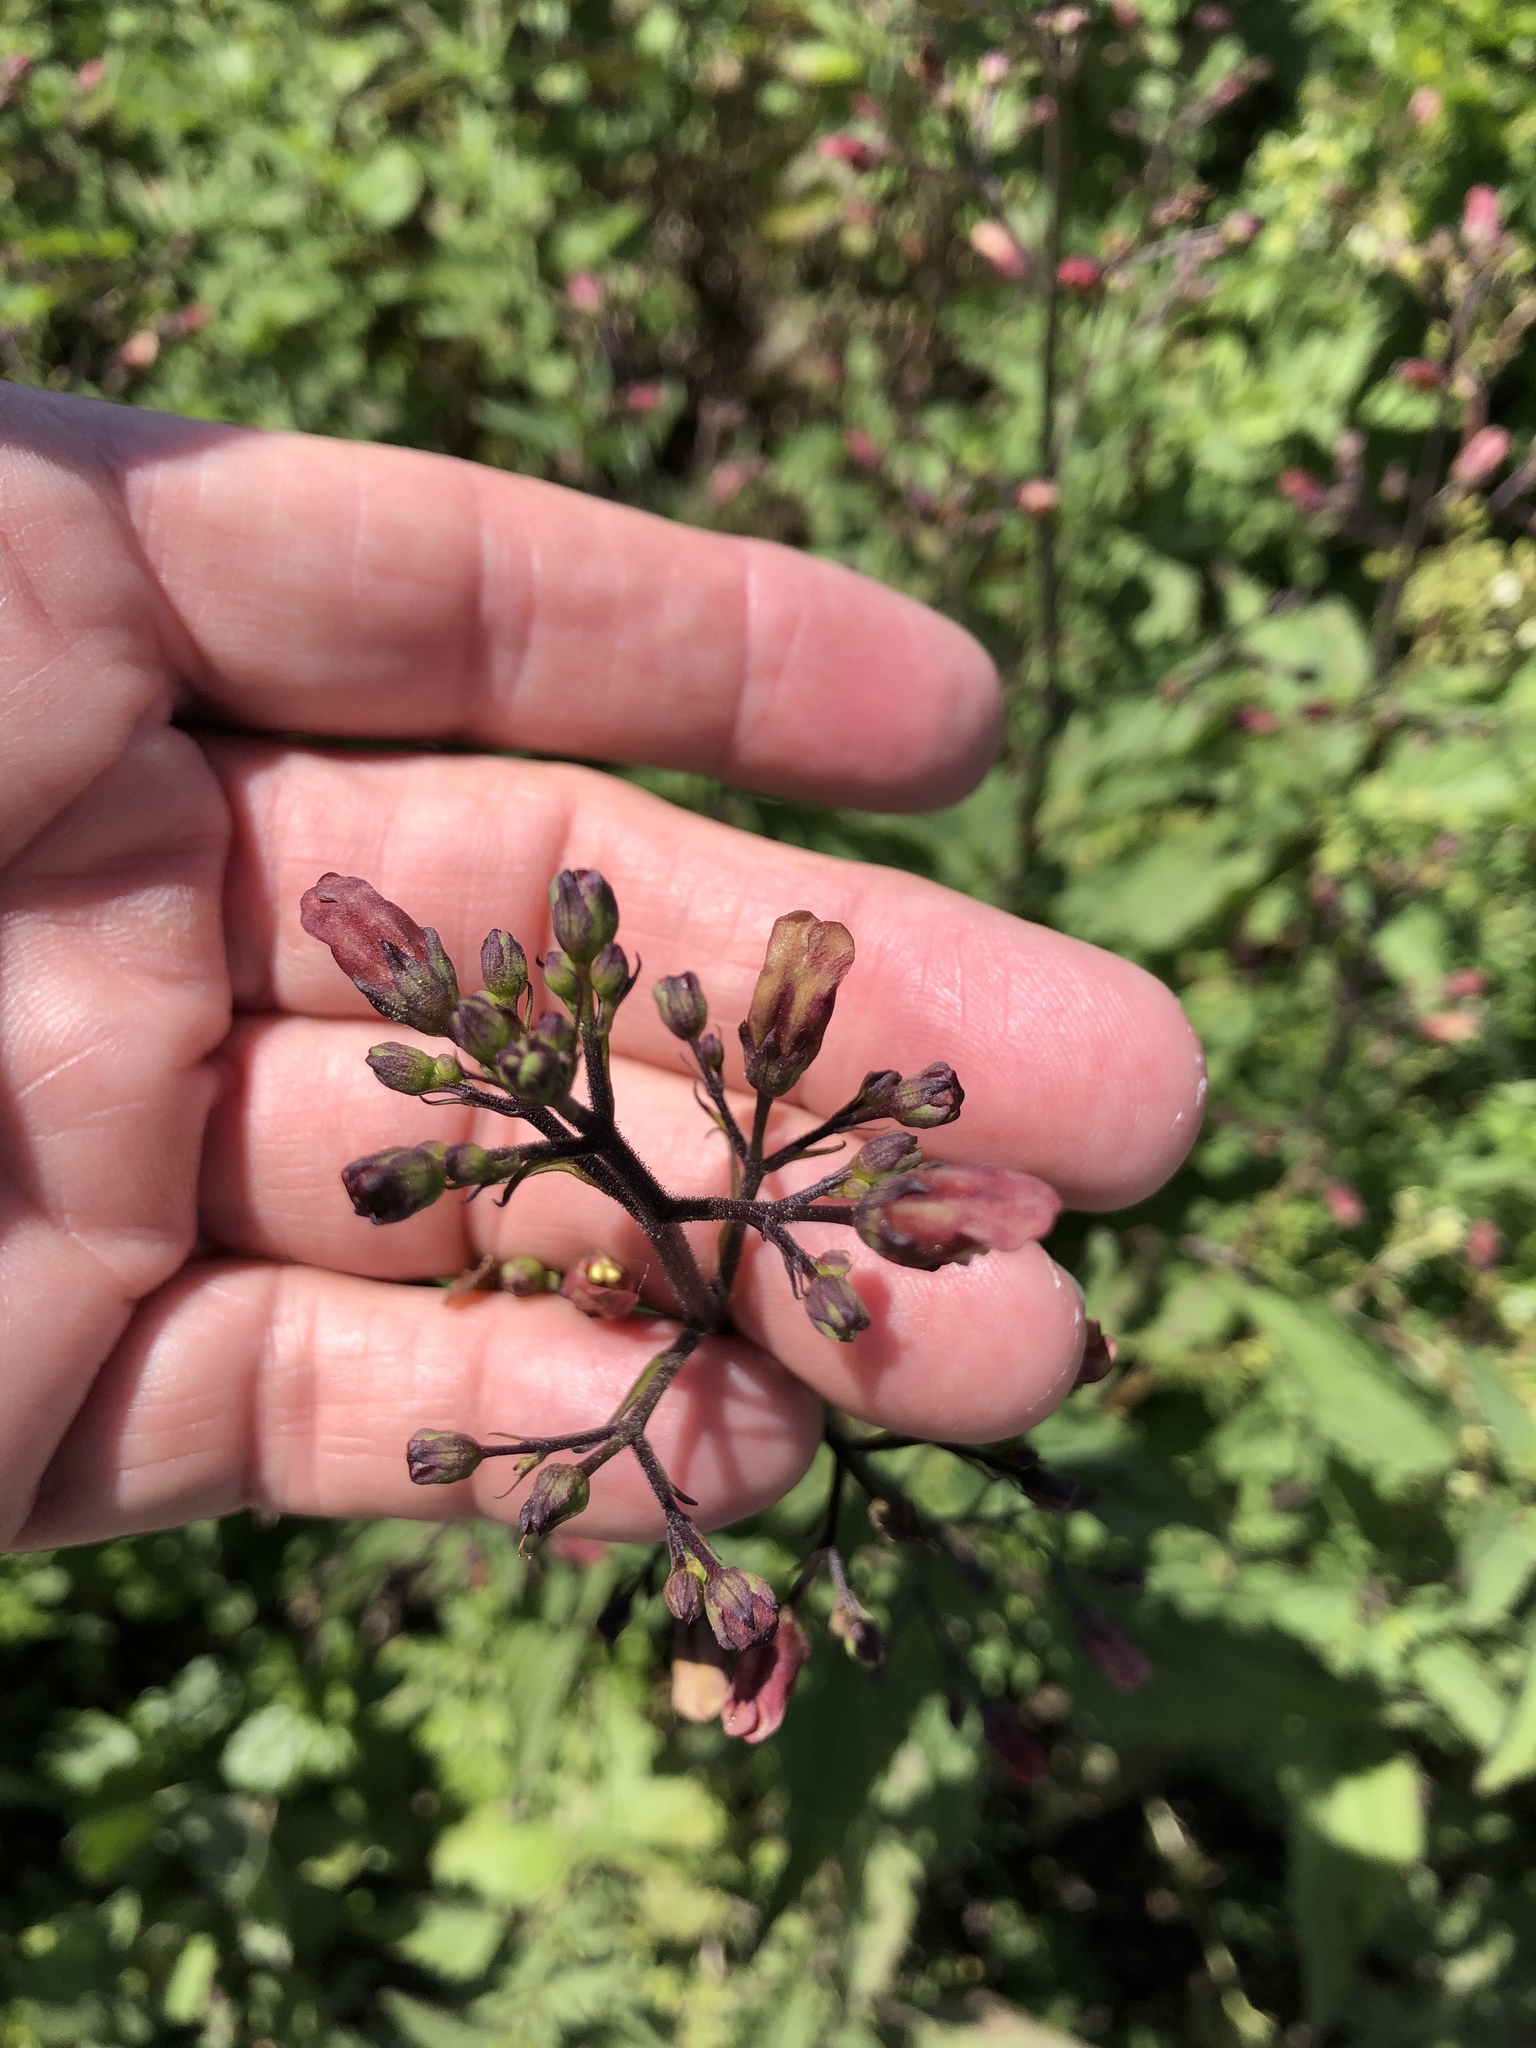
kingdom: Plantae
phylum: Tracheophyta
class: Magnoliopsida
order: Lamiales
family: Scrophulariaceae
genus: Scrophularia
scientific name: Scrophularia californica
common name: California figwort
